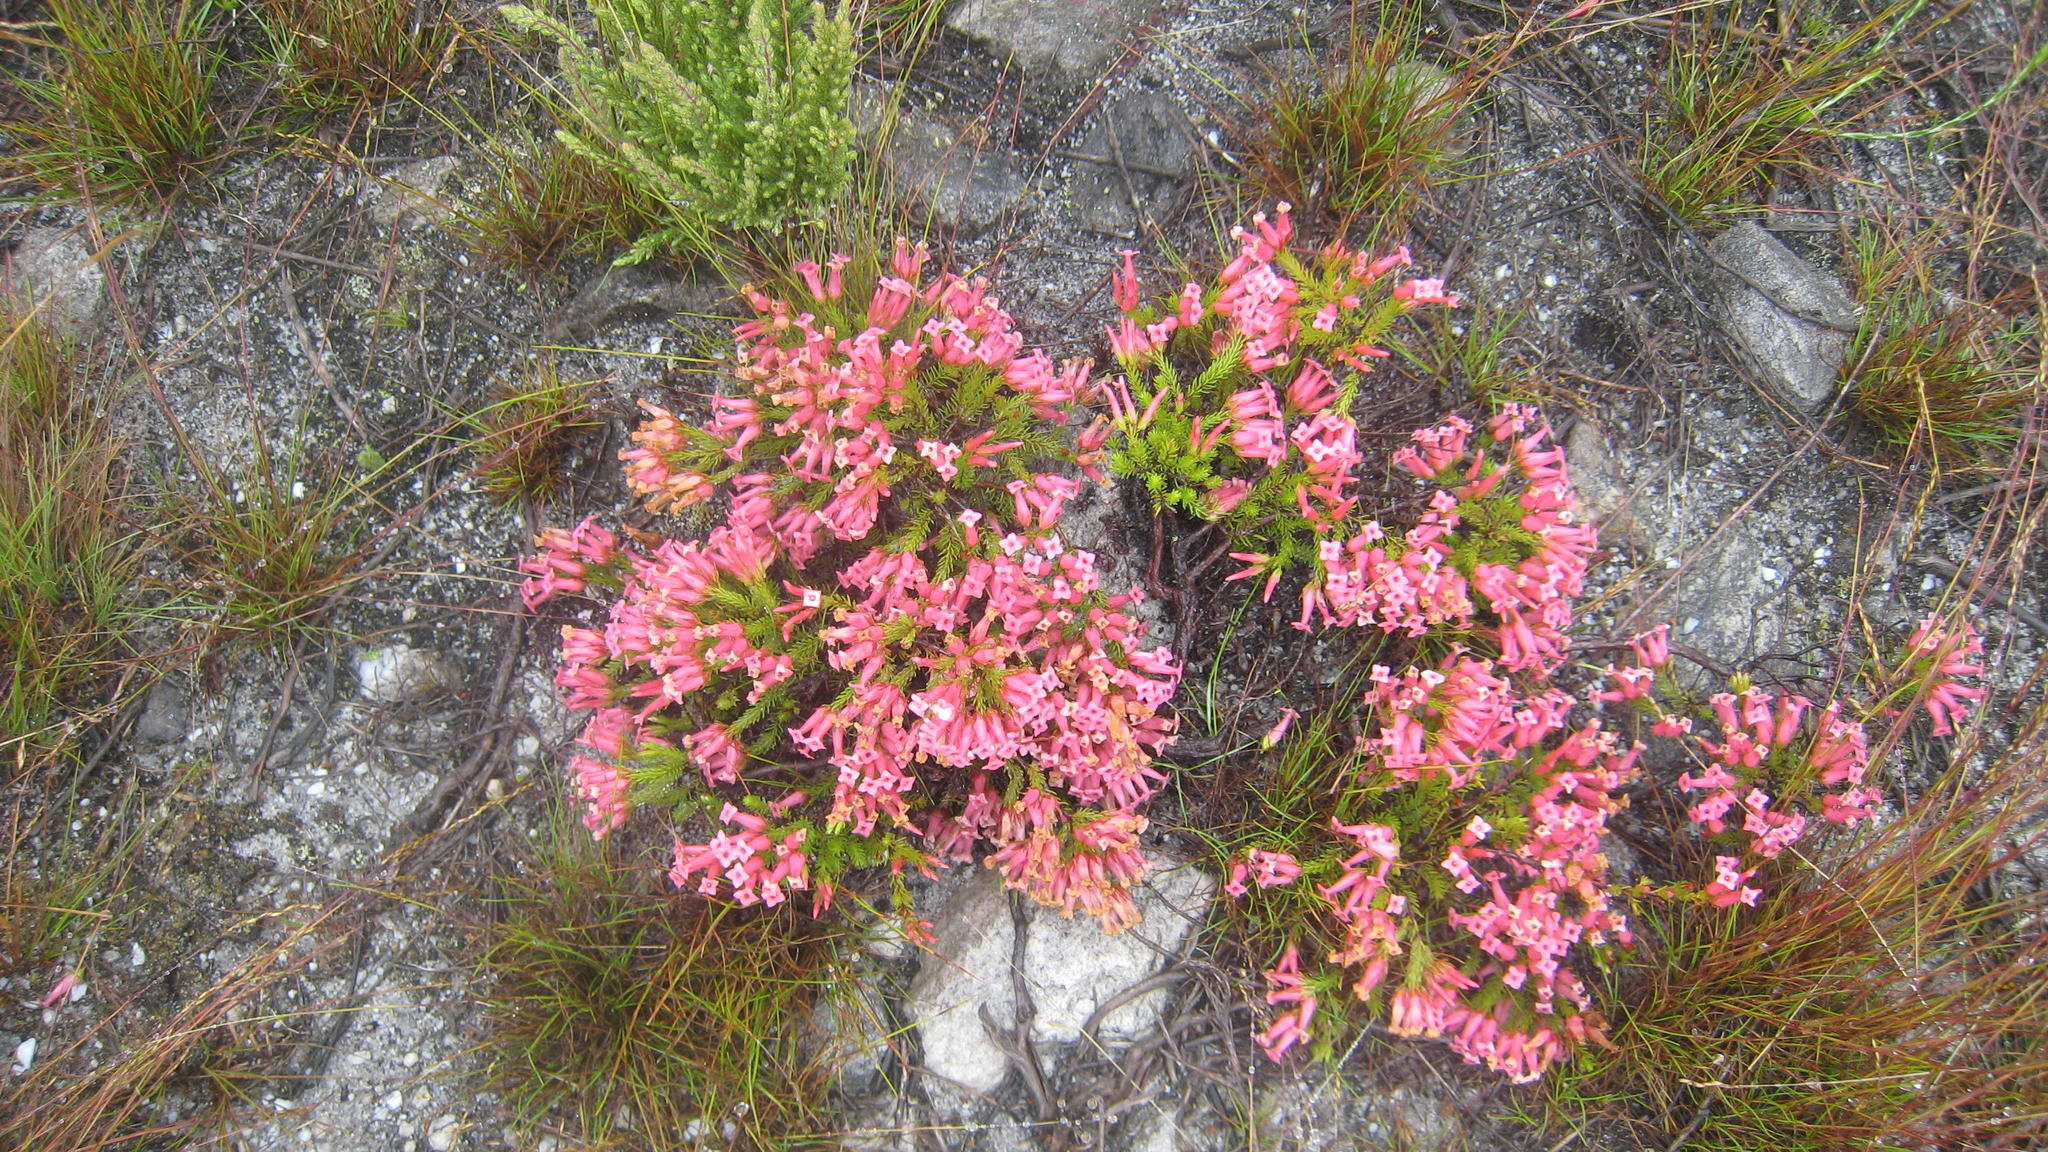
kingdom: Plantae
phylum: Tracheophyta
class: Magnoliopsida
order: Ericales
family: Ericaceae
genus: Erica
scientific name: Erica praenitens
